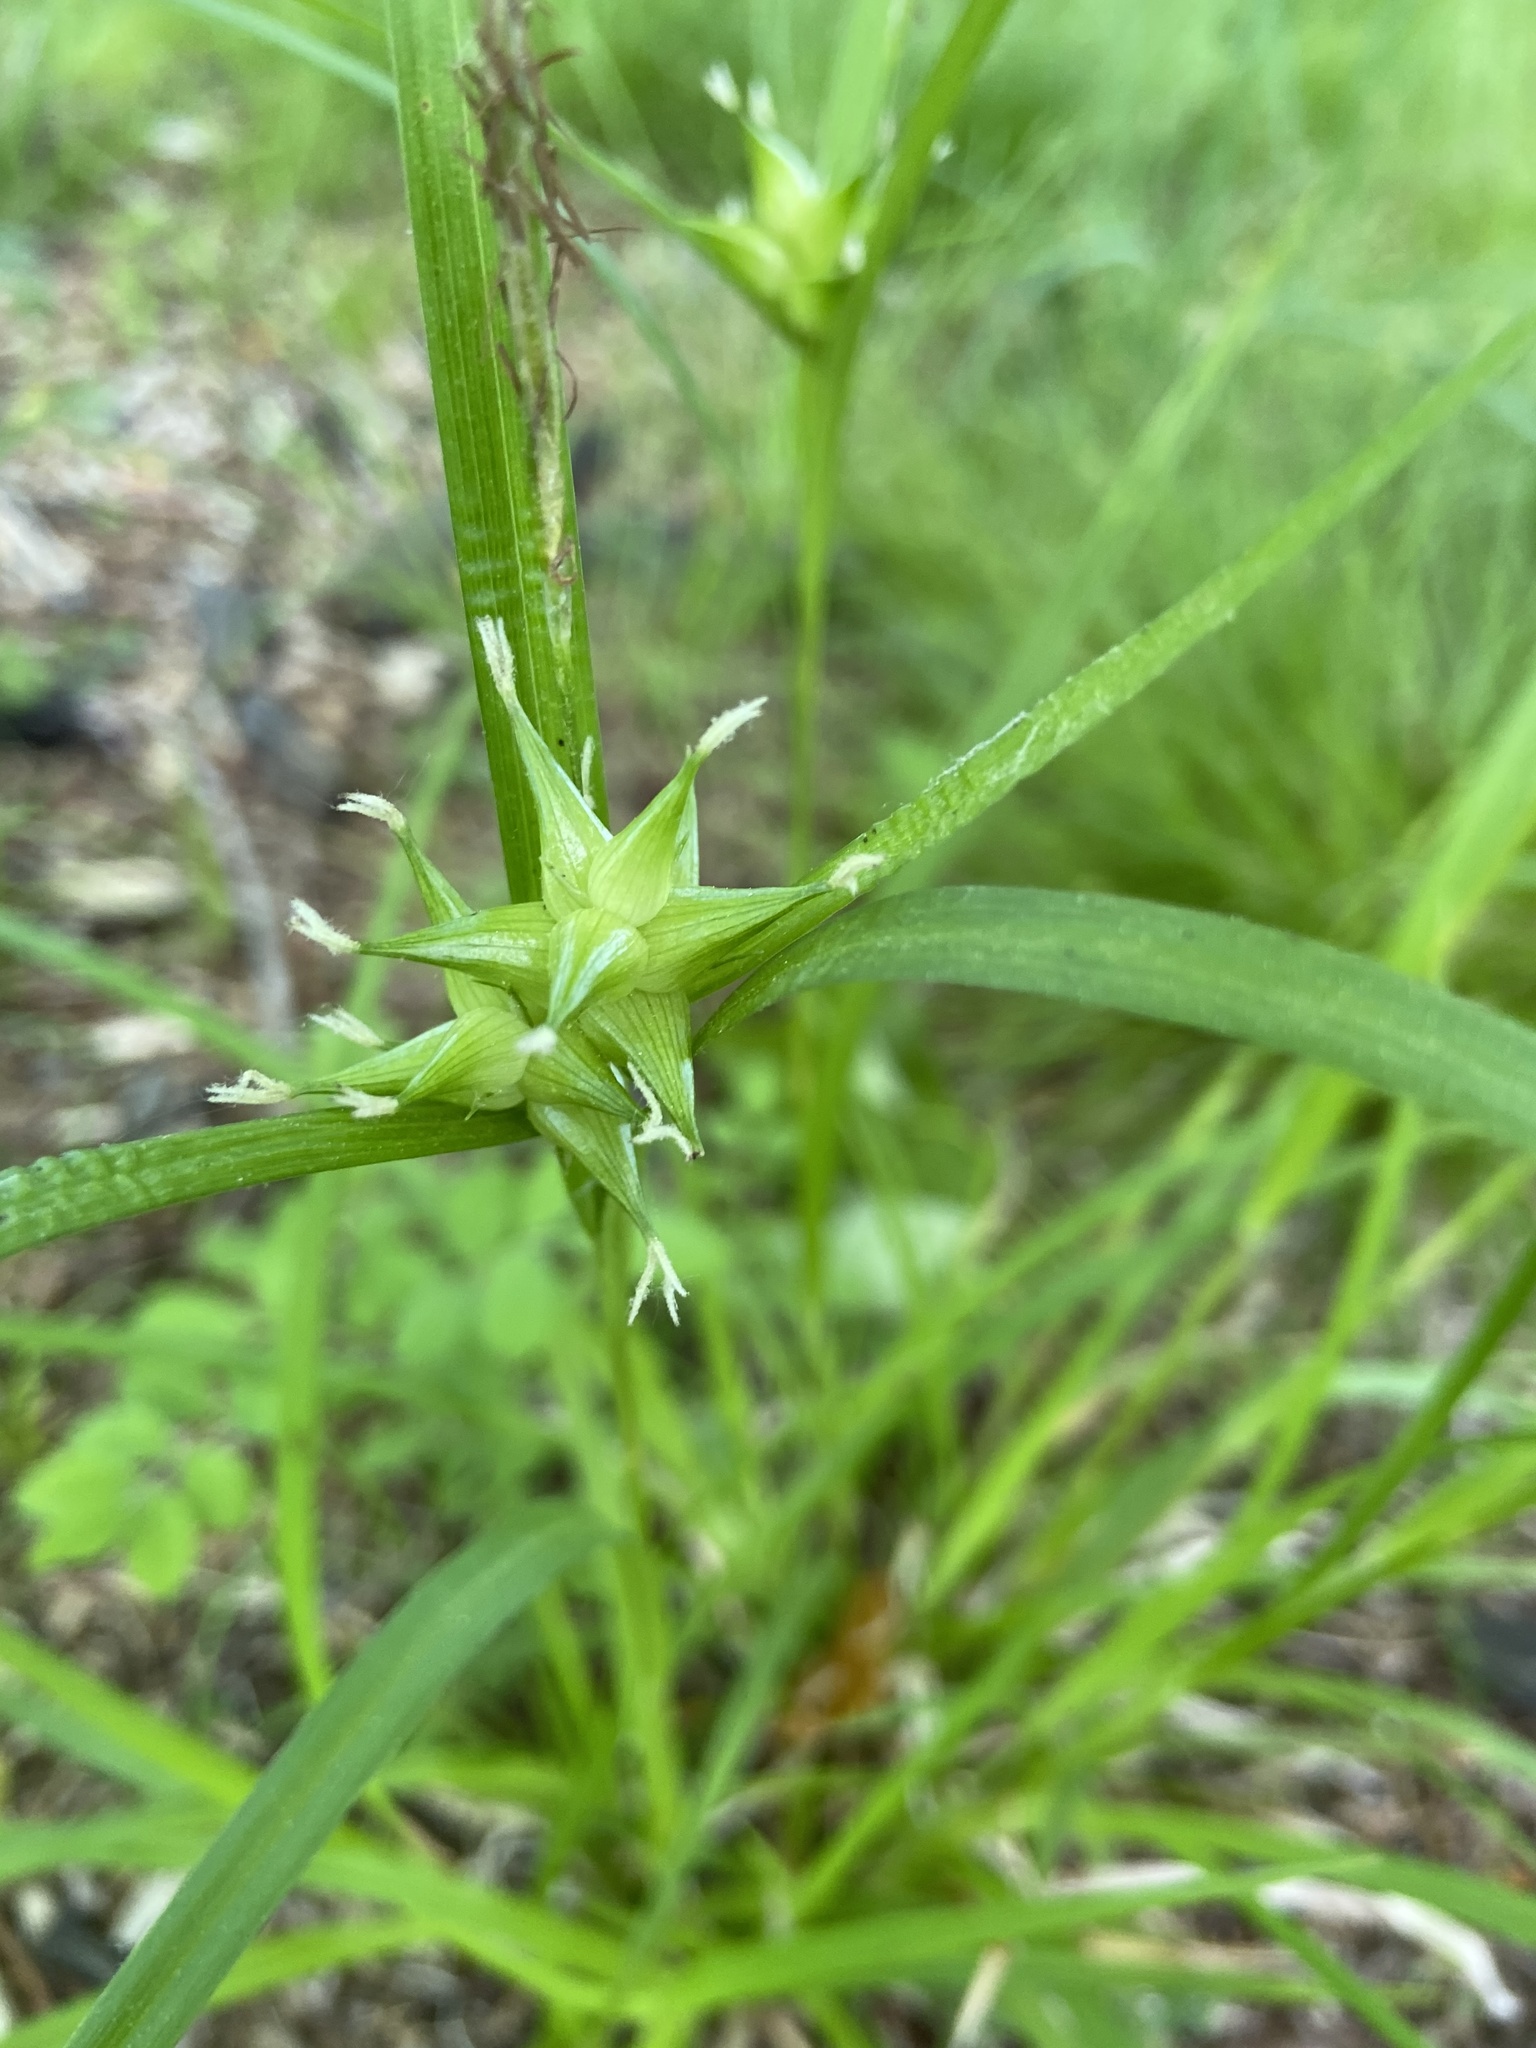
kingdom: Plantae
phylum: Tracheophyta
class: Liliopsida
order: Poales
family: Cyperaceae
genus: Carex
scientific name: Carex intumescens
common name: Greater bladder sedge
